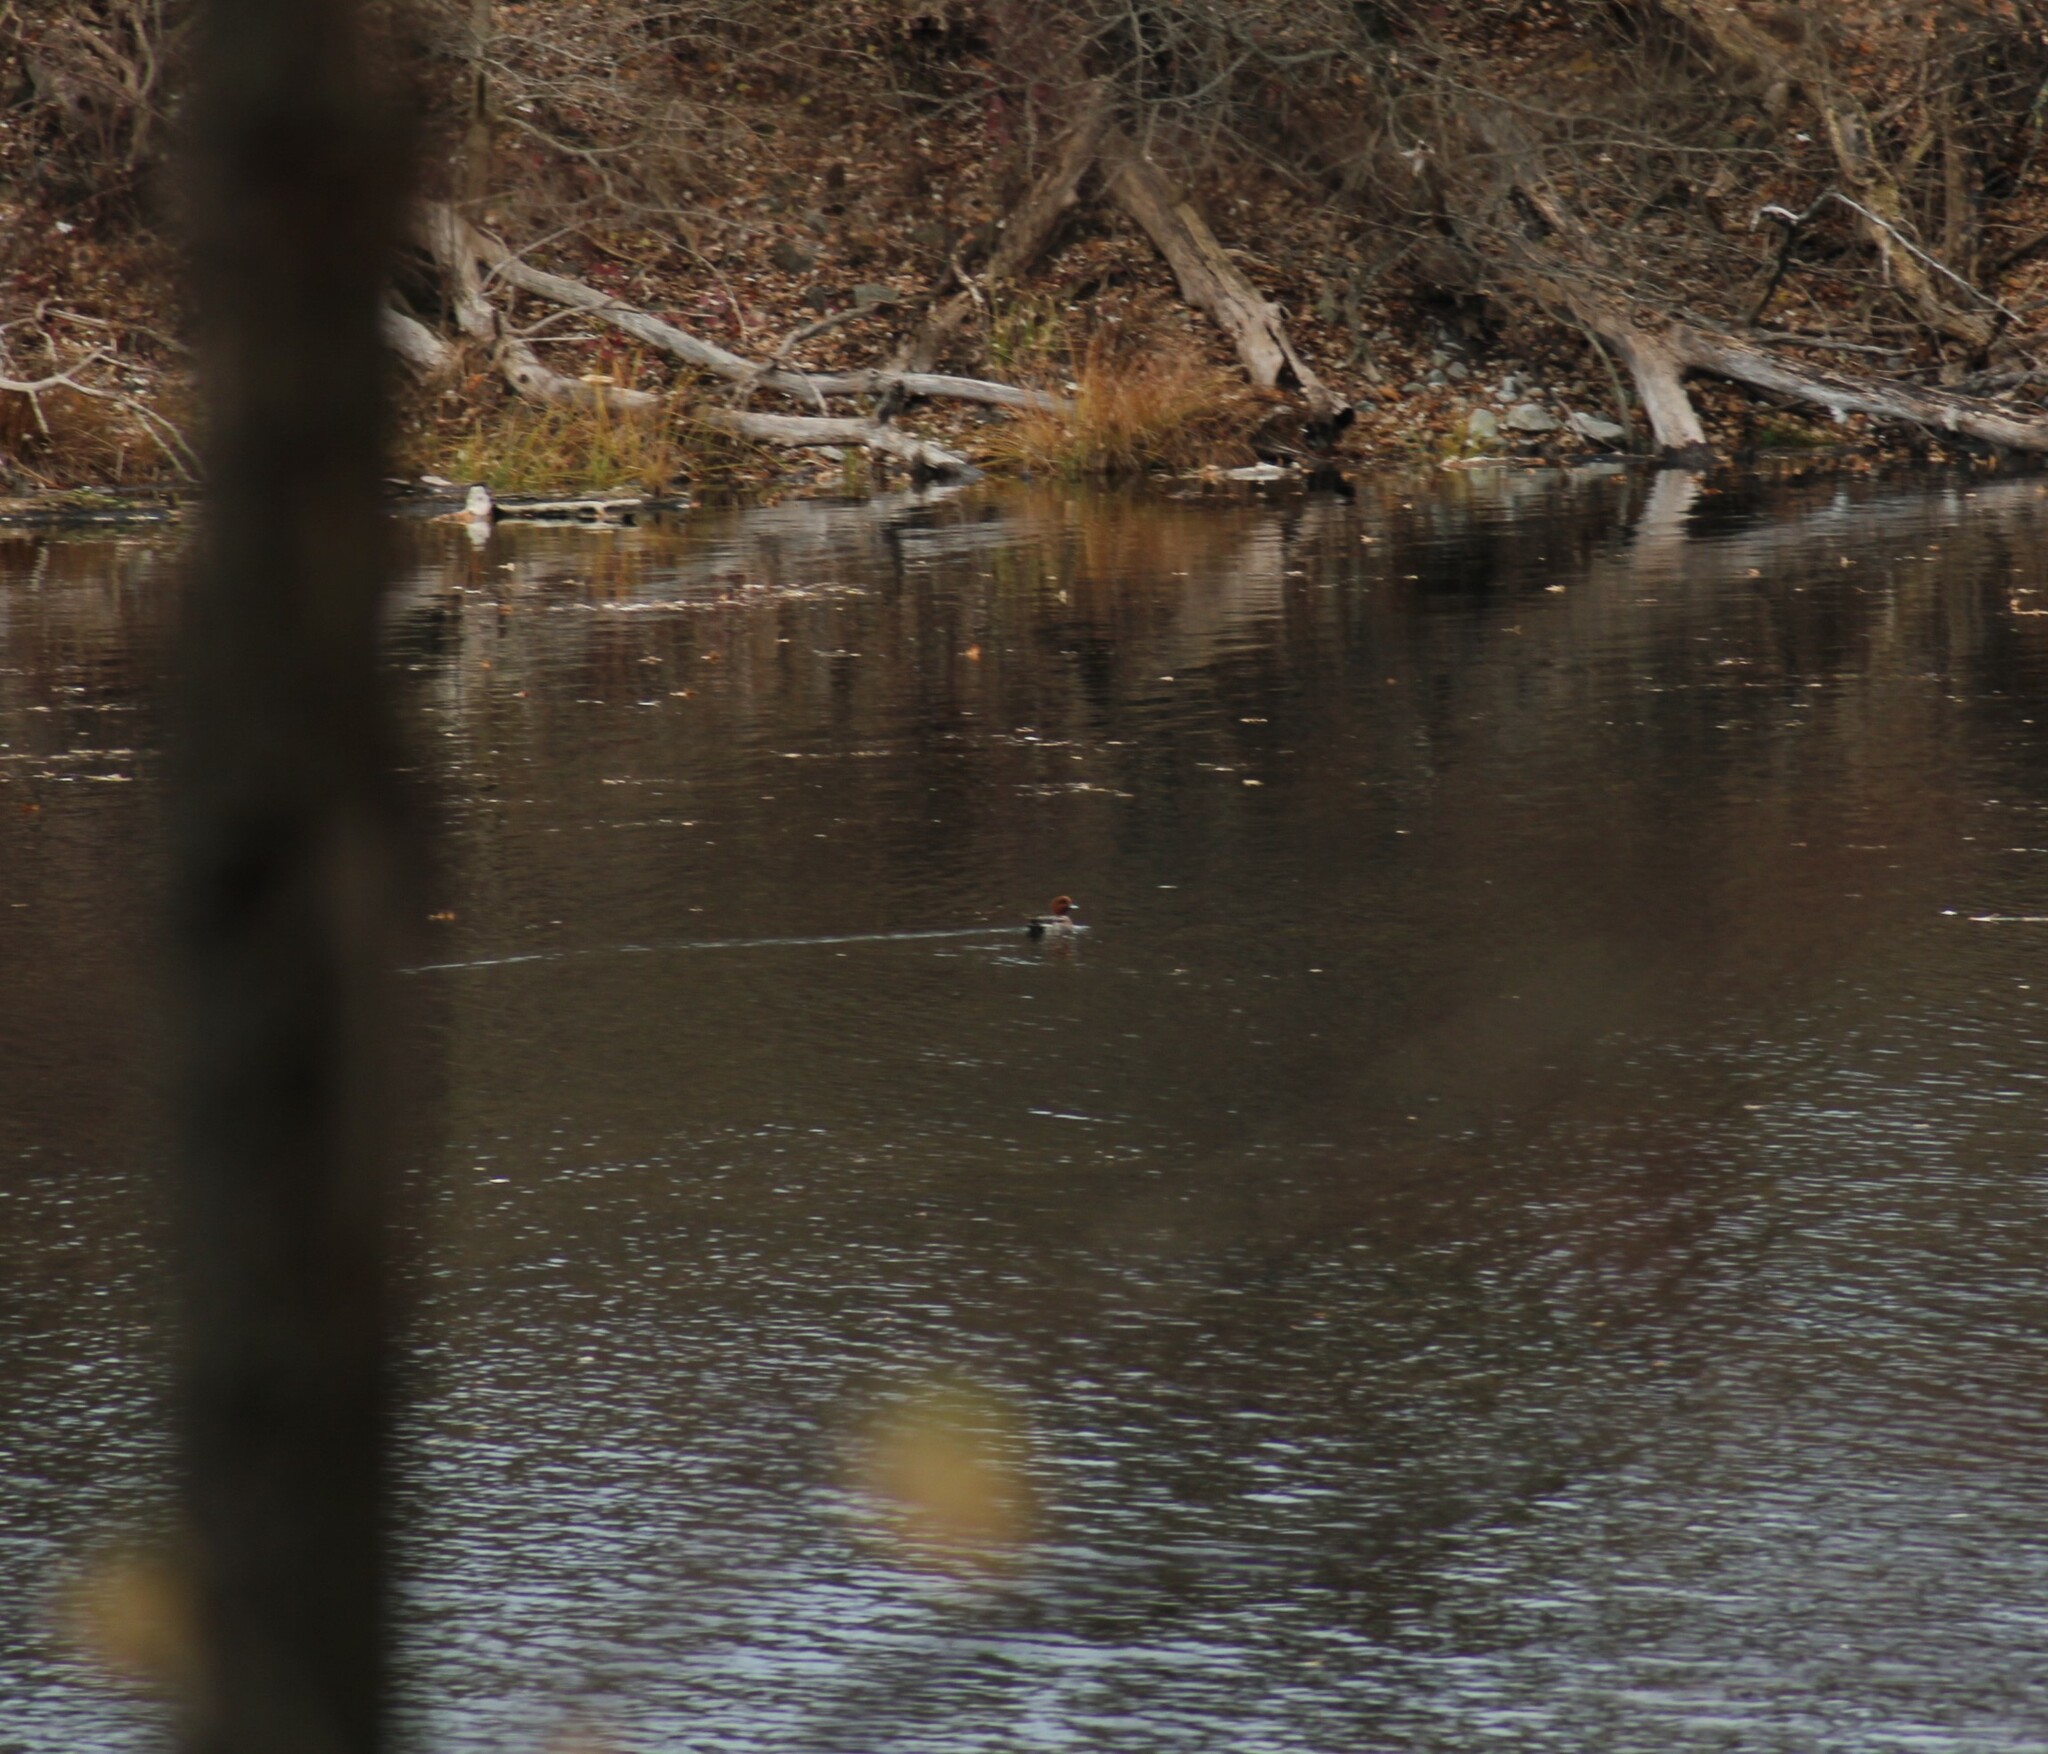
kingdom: Animalia
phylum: Chordata
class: Aves
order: Anseriformes
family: Anatidae
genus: Mareca
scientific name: Mareca penelope
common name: Eurasian wigeon
